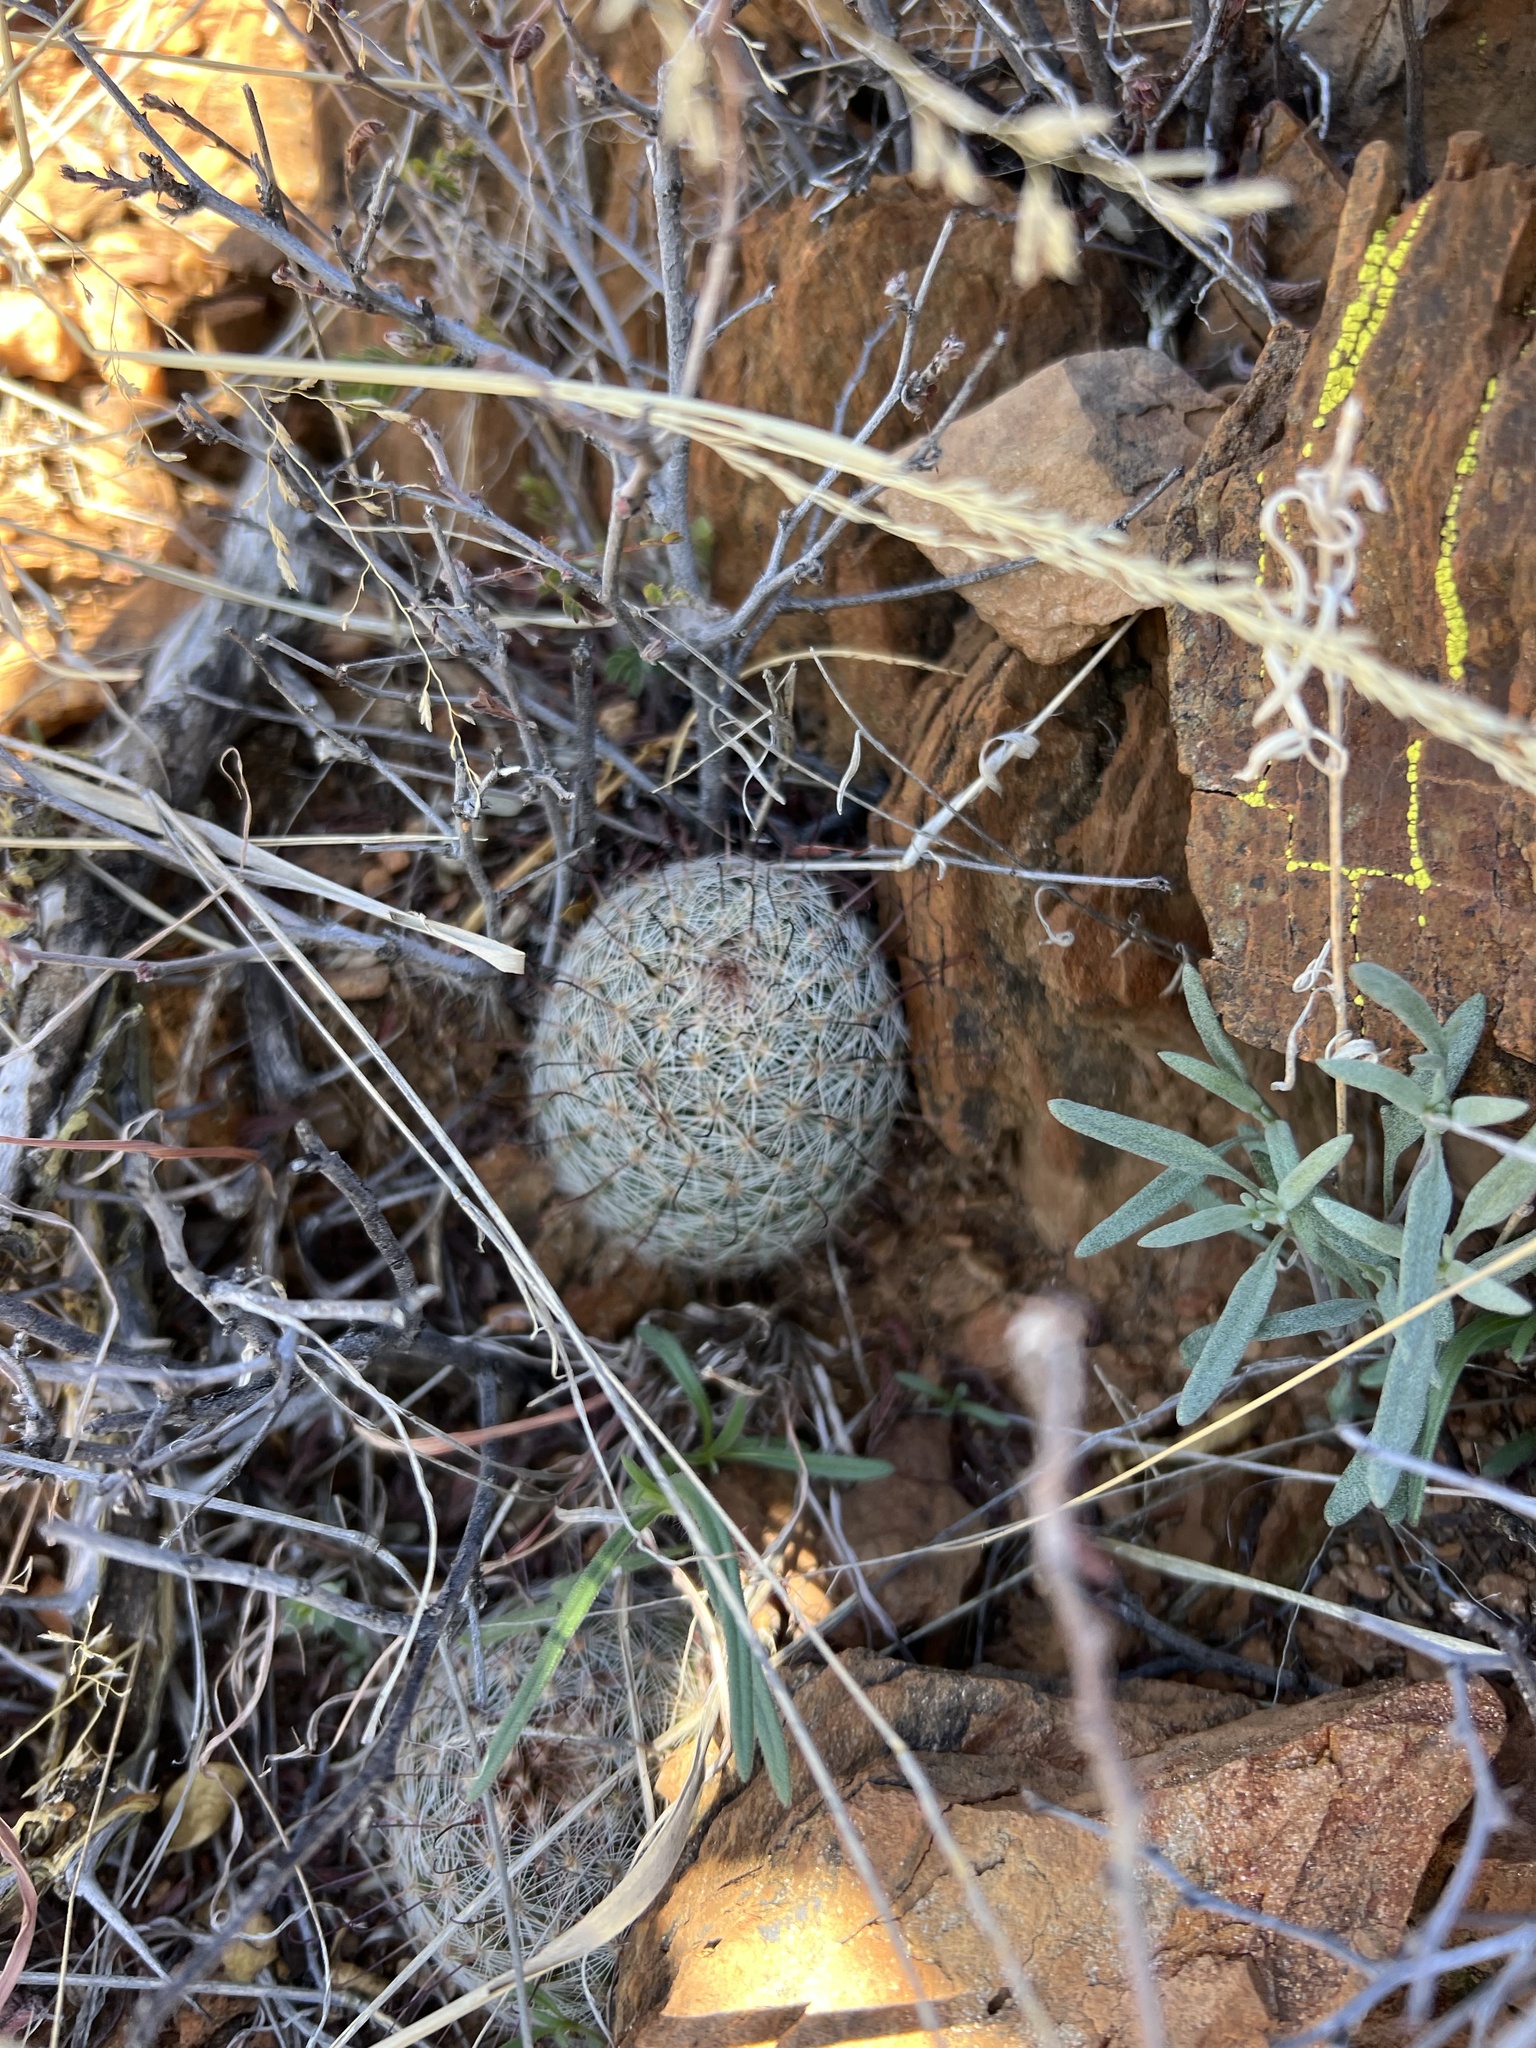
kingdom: Plantae
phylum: Tracheophyta
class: Magnoliopsida
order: Caryophyllales
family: Cactaceae
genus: Cochemiea
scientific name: Cochemiea grahamii
